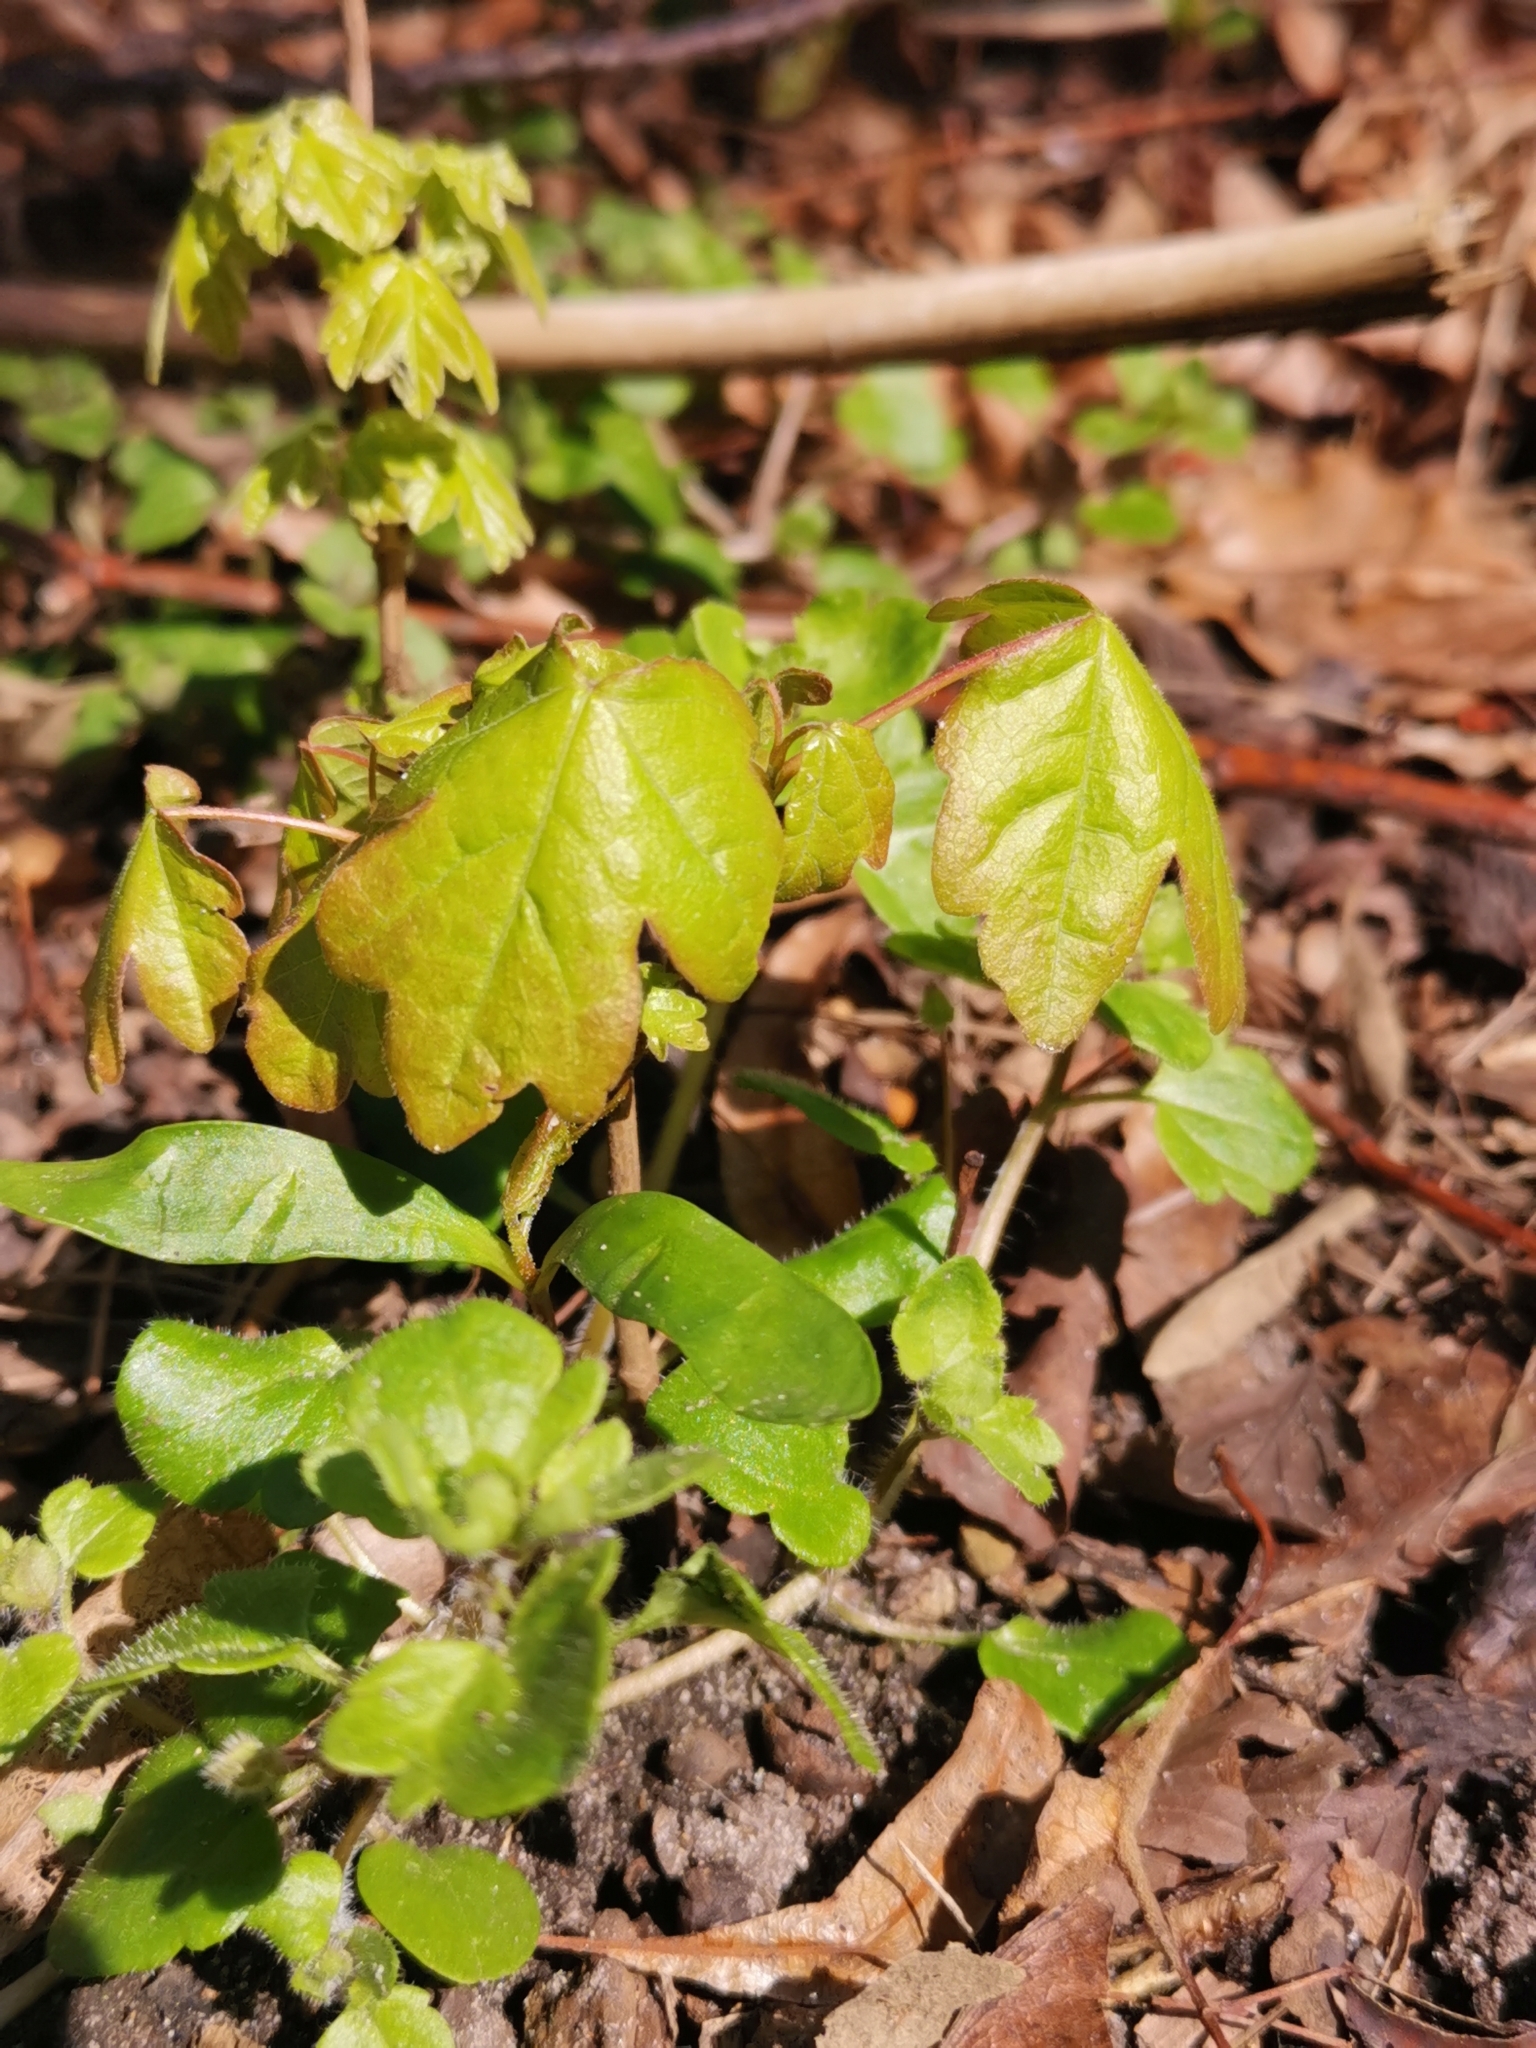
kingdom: Plantae
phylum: Tracheophyta
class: Magnoliopsida
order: Sapindales
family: Sapindaceae
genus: Acer
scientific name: Acer campestre
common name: Field maple
